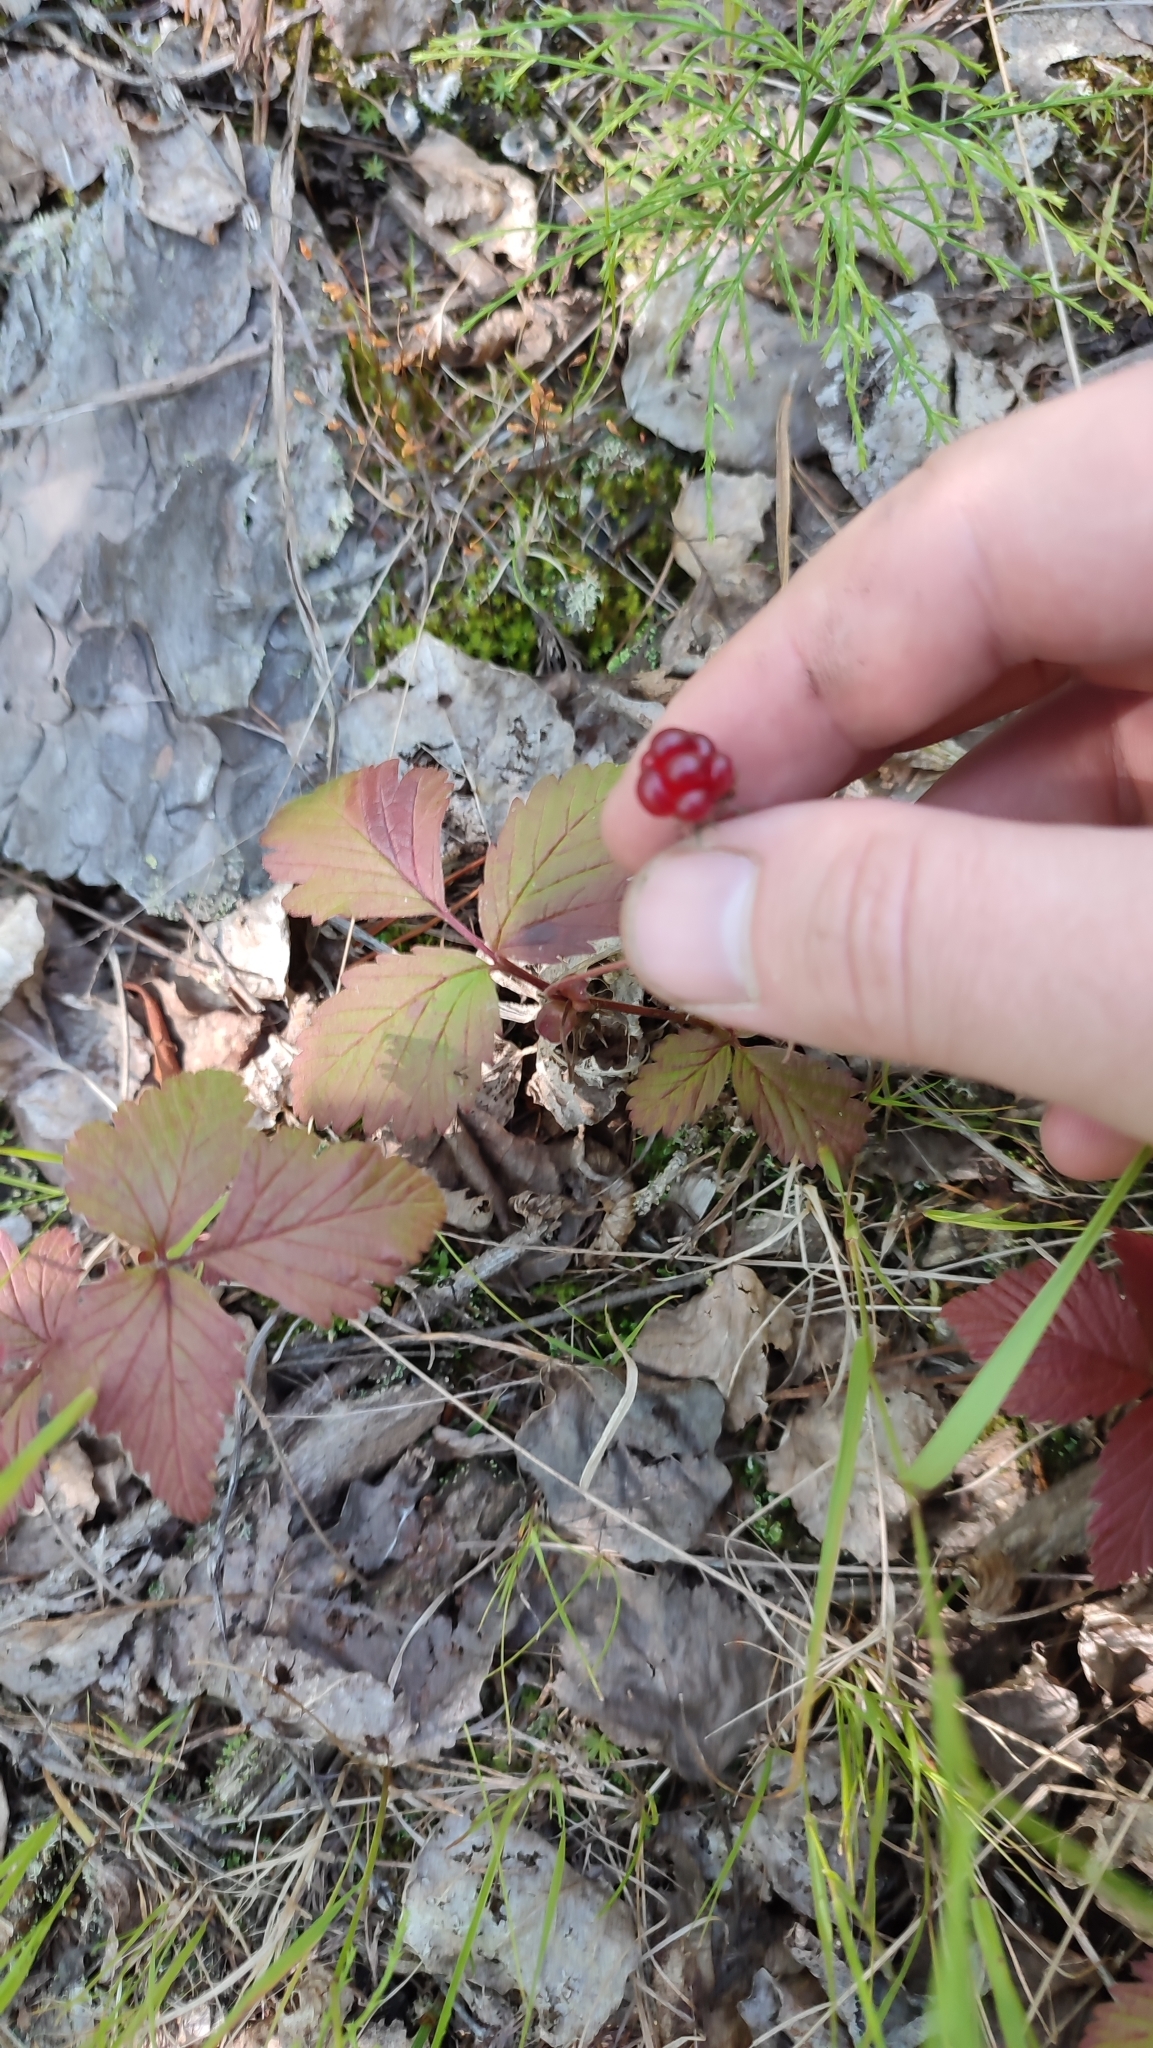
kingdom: Plantae
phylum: Tracheophyta
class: Magnoliopsida
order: Rosales
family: Rosaceae
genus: Rubus
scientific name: Rubus arcticus
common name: Arctic bramble
